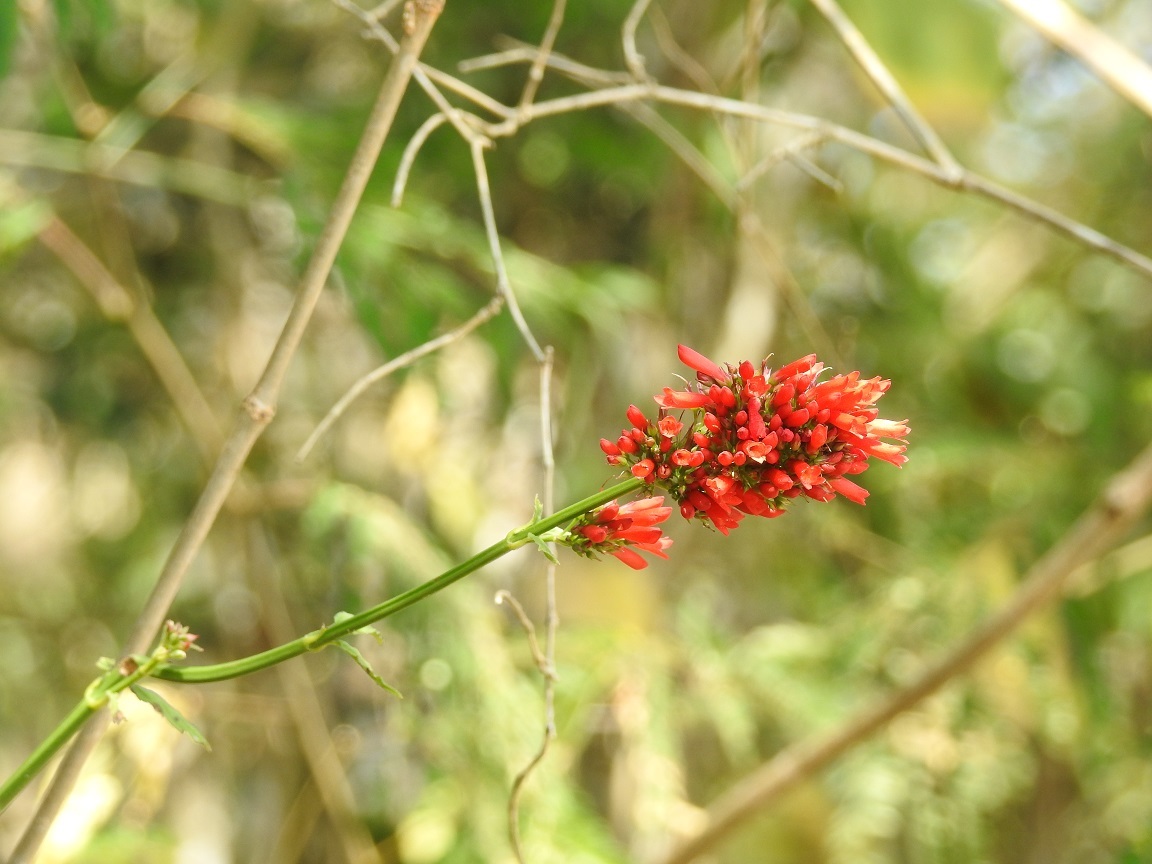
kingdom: Plantae
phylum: Tracheophyta
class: Magnoliopsida
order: Lamiales
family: Plantaginaceae
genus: Russelia
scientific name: Russelia verticillata
